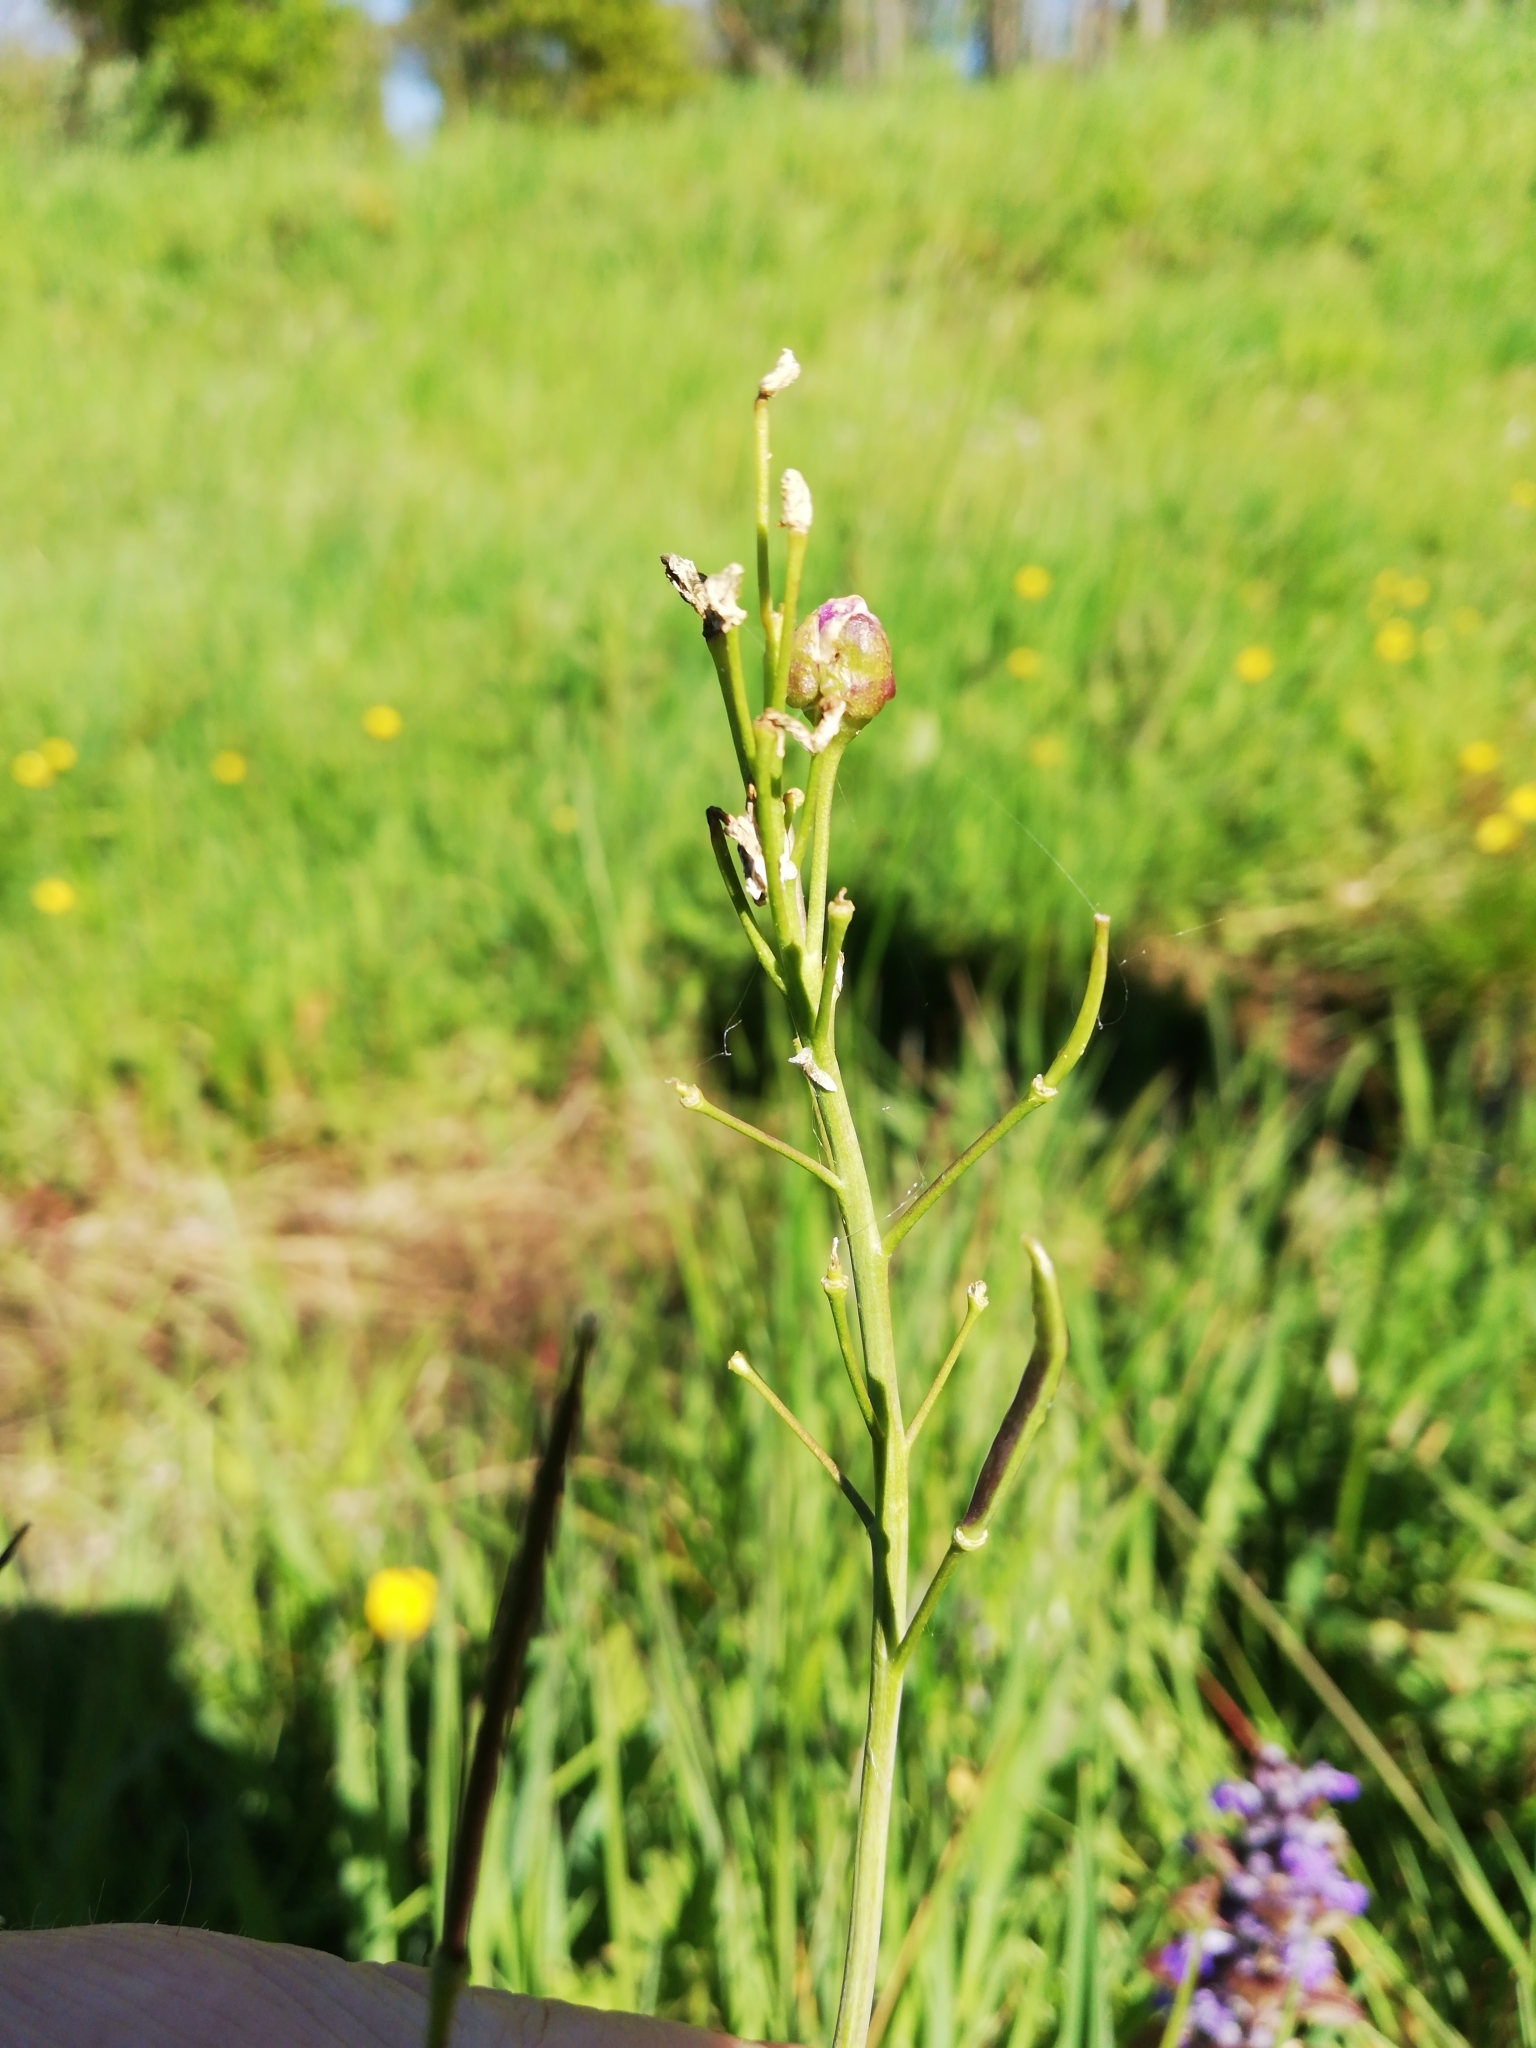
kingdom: Animalia
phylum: Arthropoda
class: Insecta
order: Diptera
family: Cecidomyiidae
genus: Dasineura
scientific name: Dasineura cardaminis
